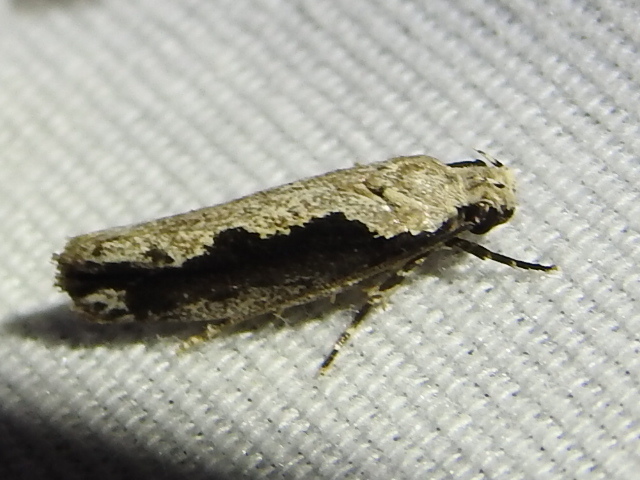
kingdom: Animalia
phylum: Arthropoda
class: Insecta
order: Lepidoptera
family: Ethmiidae
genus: Ethmia
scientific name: Ethmia semiombra
